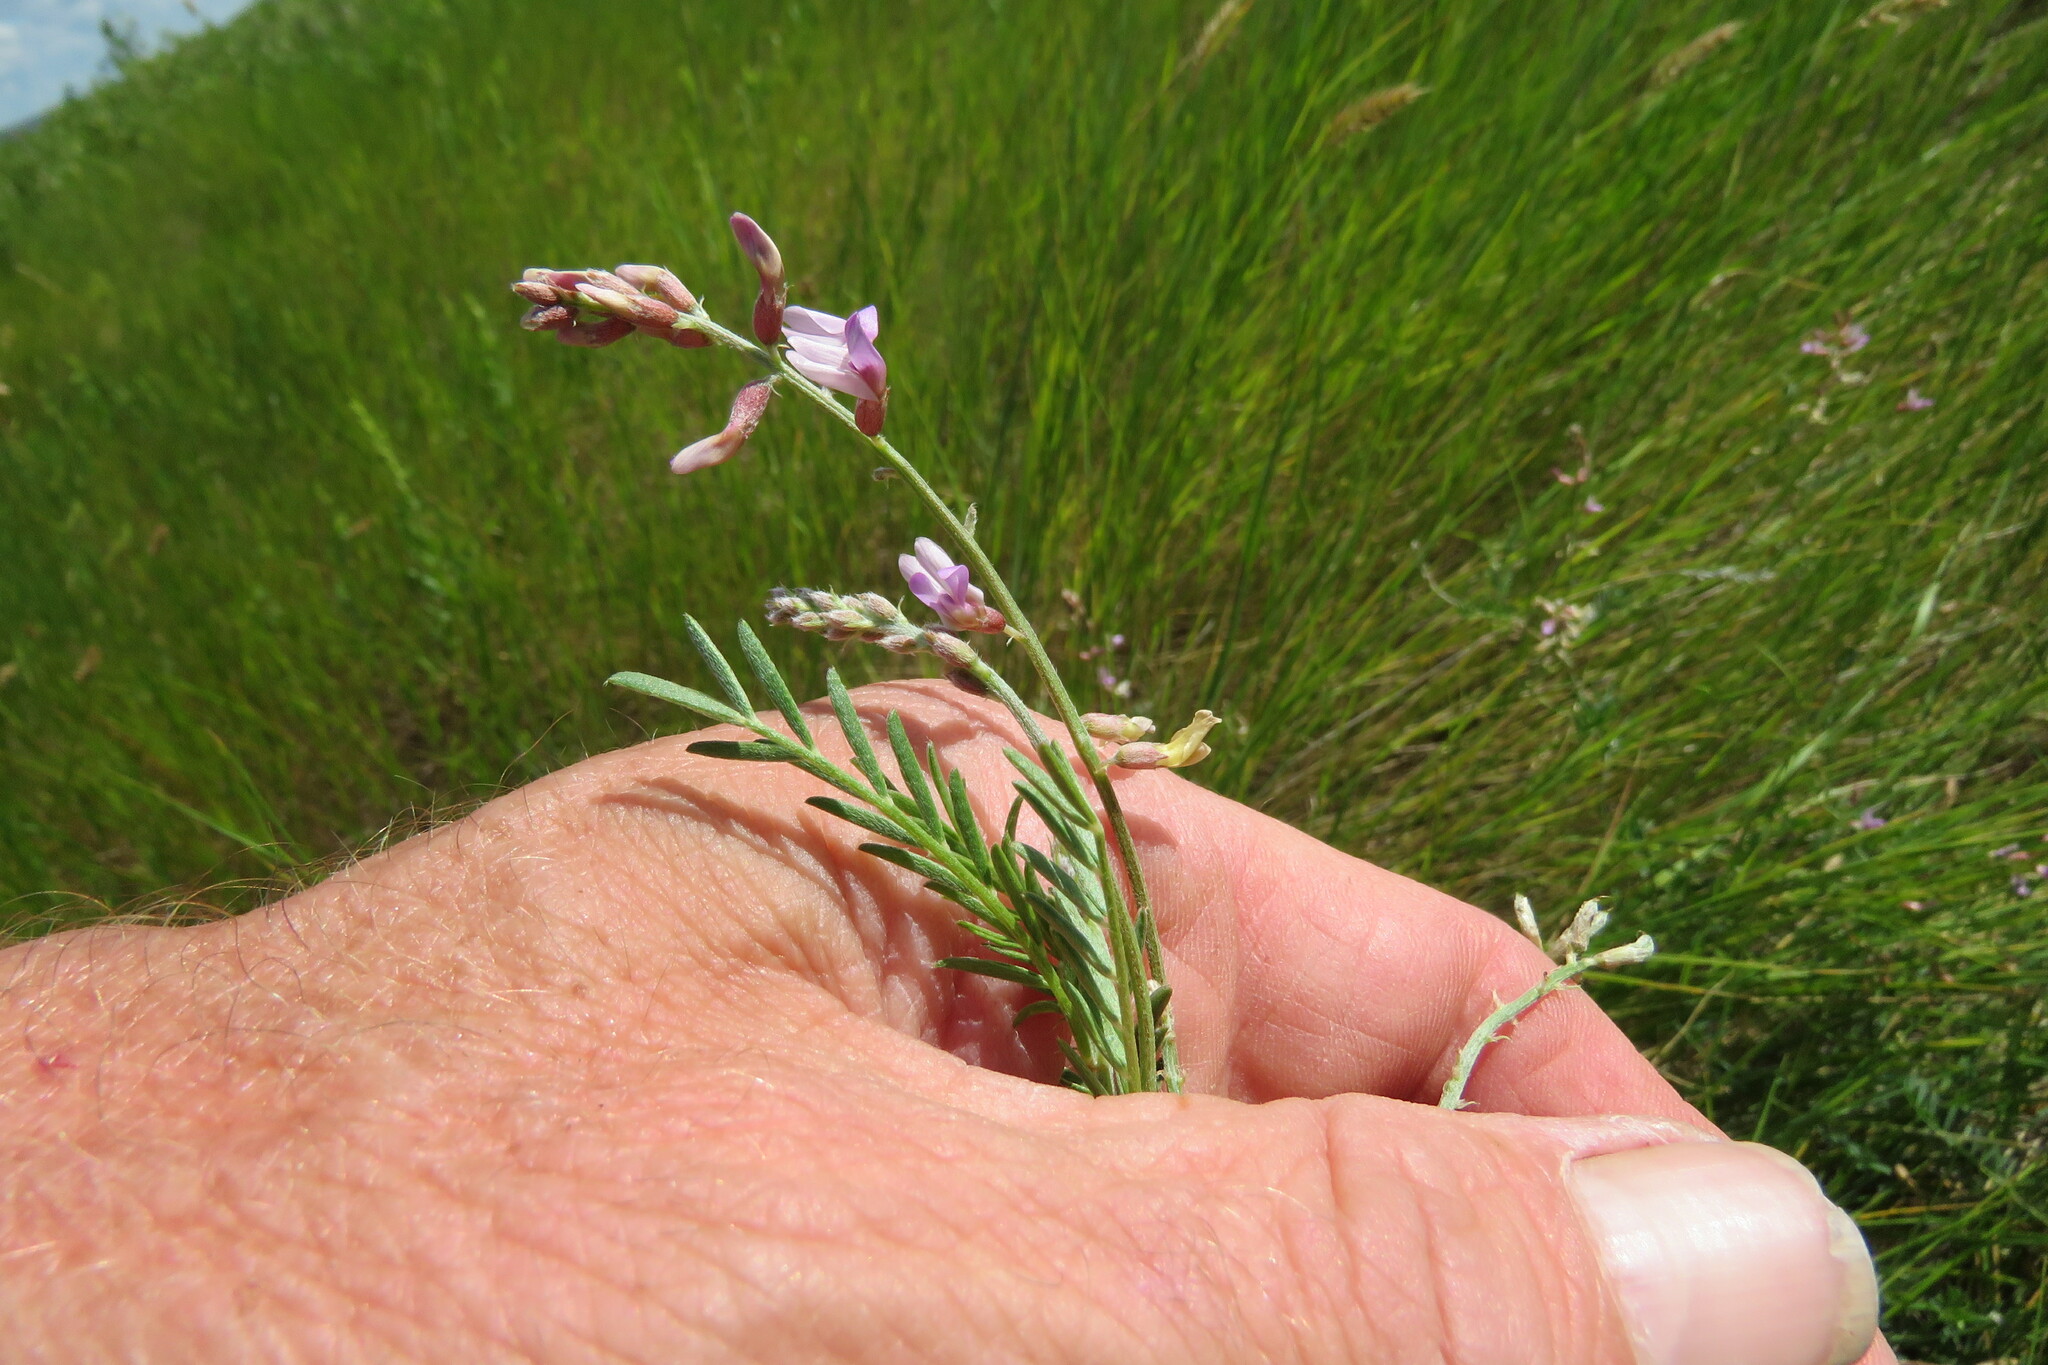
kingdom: Plantae
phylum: Tracheophyta
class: Magnoliopsida
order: Fabales
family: Fabaceae
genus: Astragalus
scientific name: Astragalus flexuosus
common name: Pliant milk-vetch
